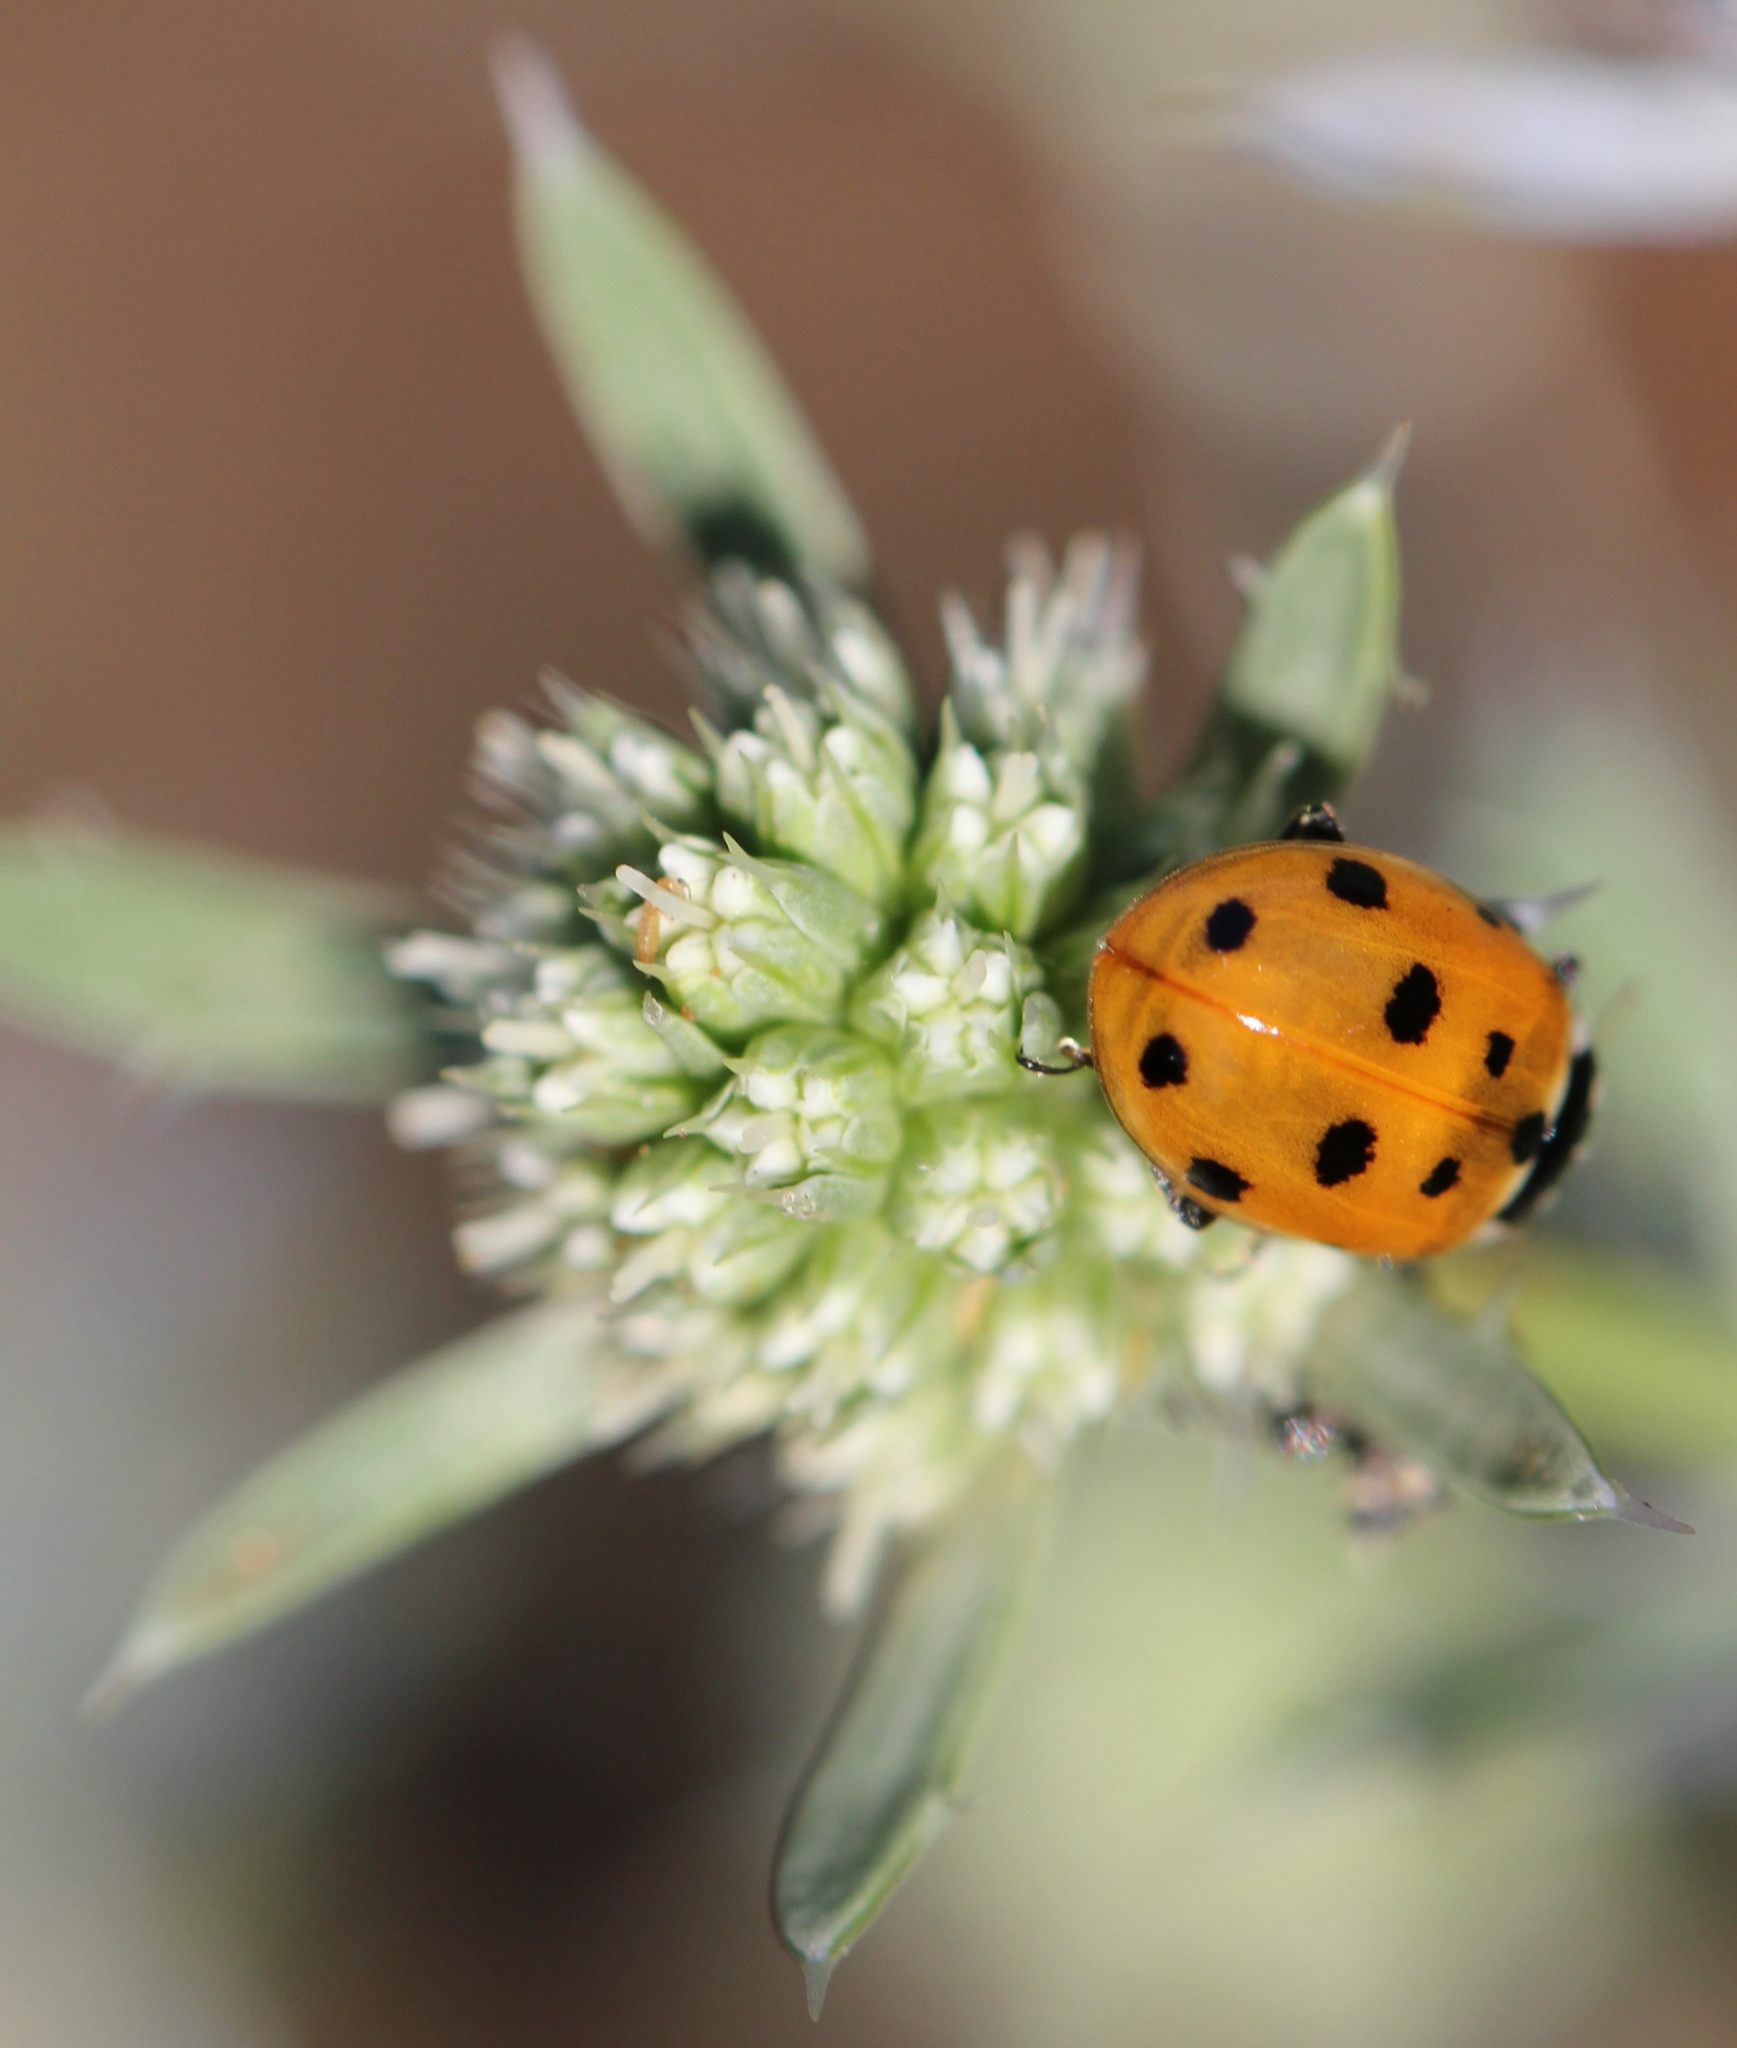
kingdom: Animalia
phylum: Arthropoda
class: Insecta
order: Coleoptera
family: Coccinellidae
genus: Hippodamia
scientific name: Hippodamia variegata
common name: Ladybird beetle
